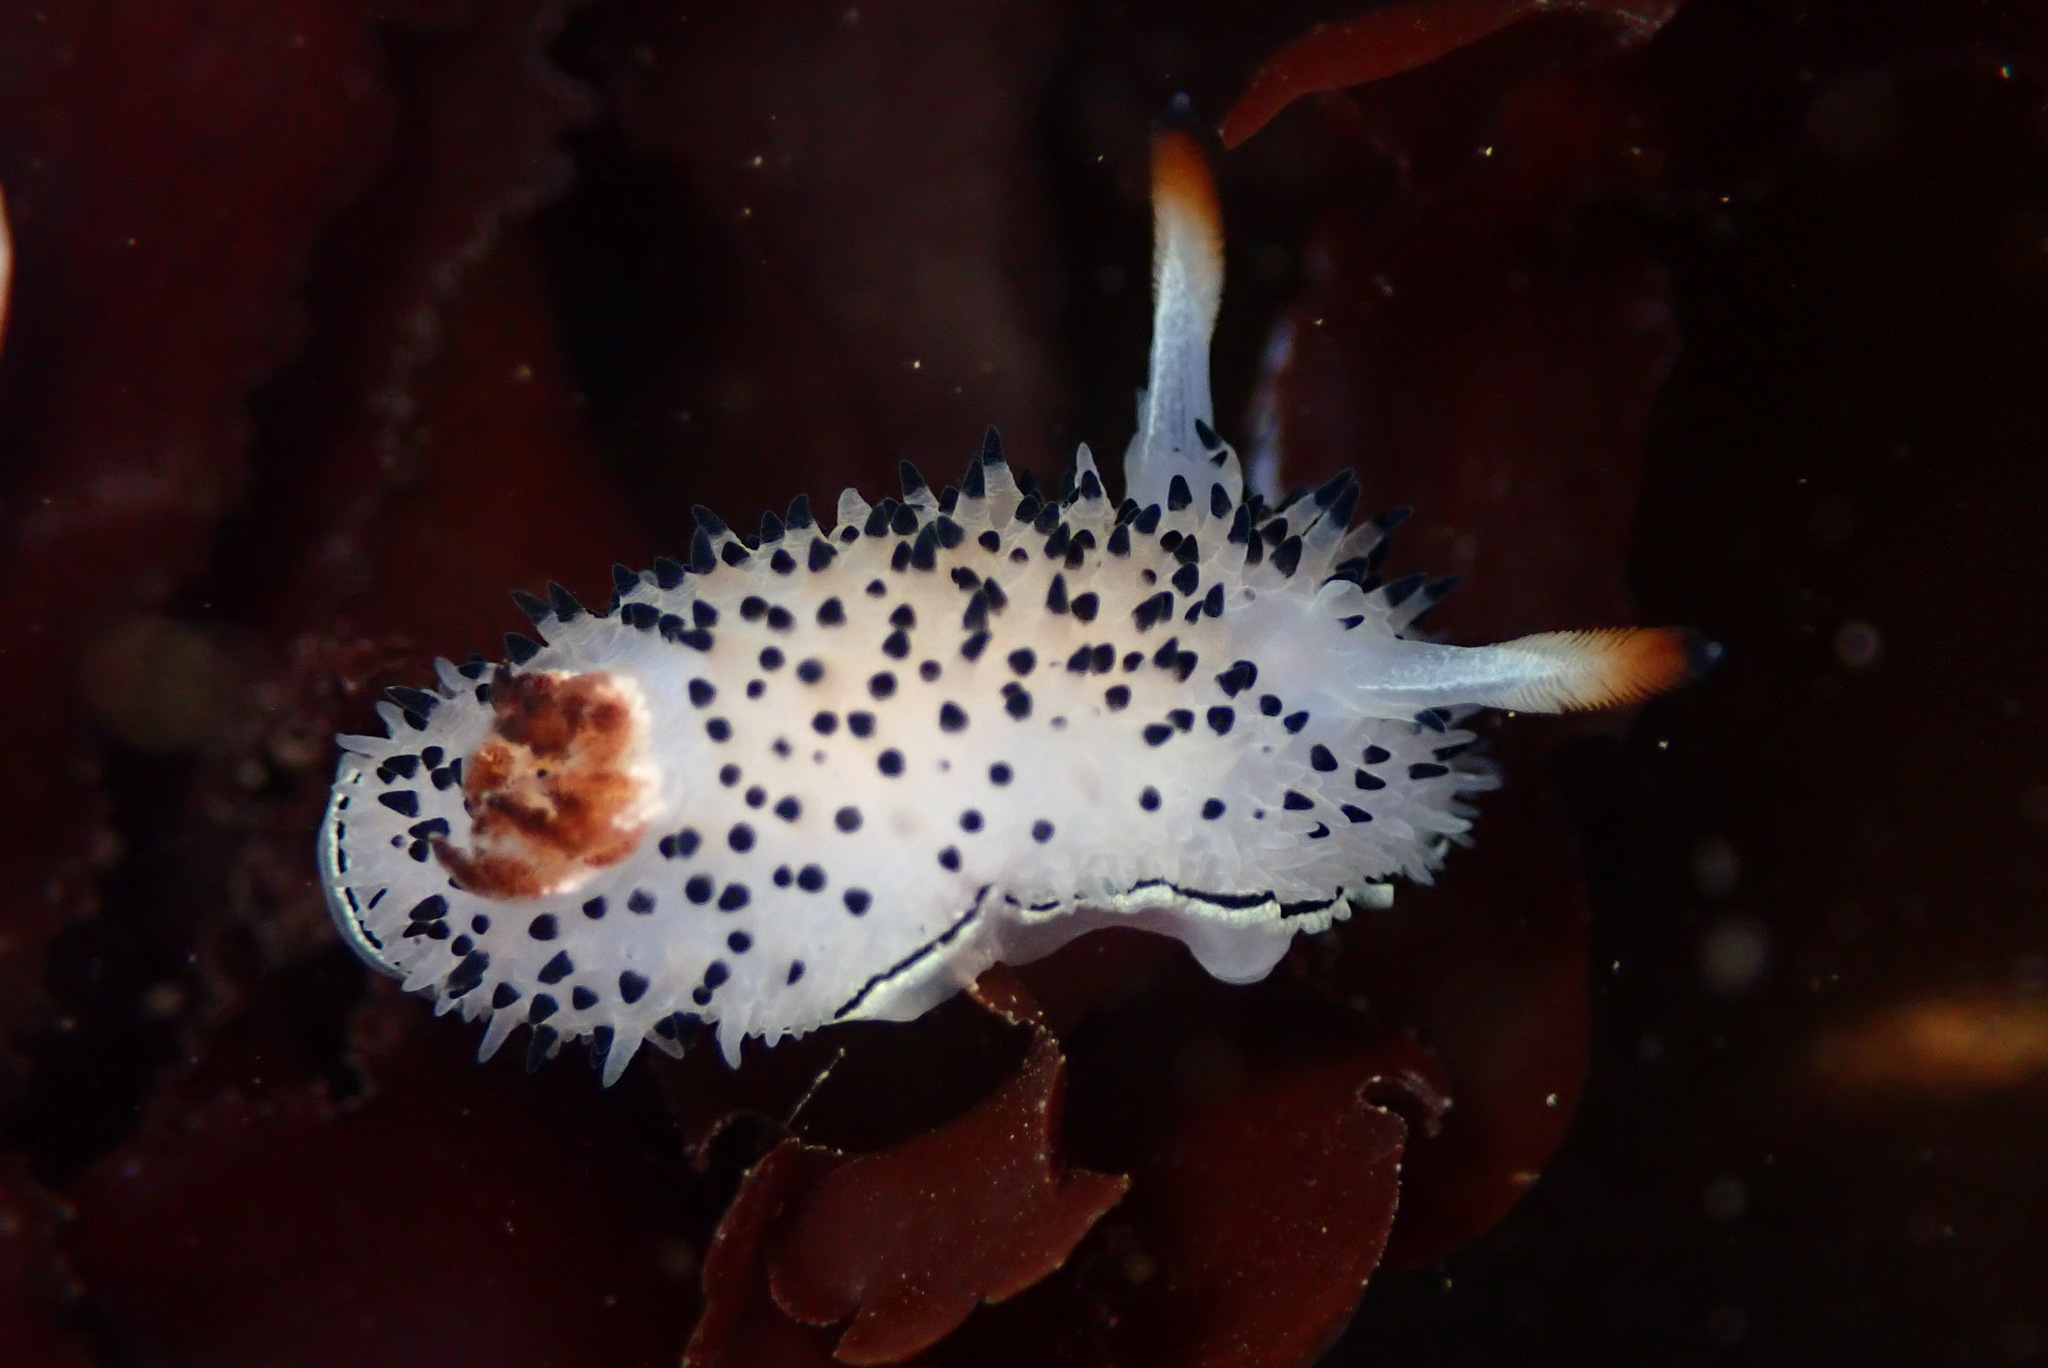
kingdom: Animalia
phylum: Mollusca
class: Gastropoda
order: Nudibranchia
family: Onchidorididae
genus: Acanthodoris
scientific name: Acanthodoris rhodoceras
